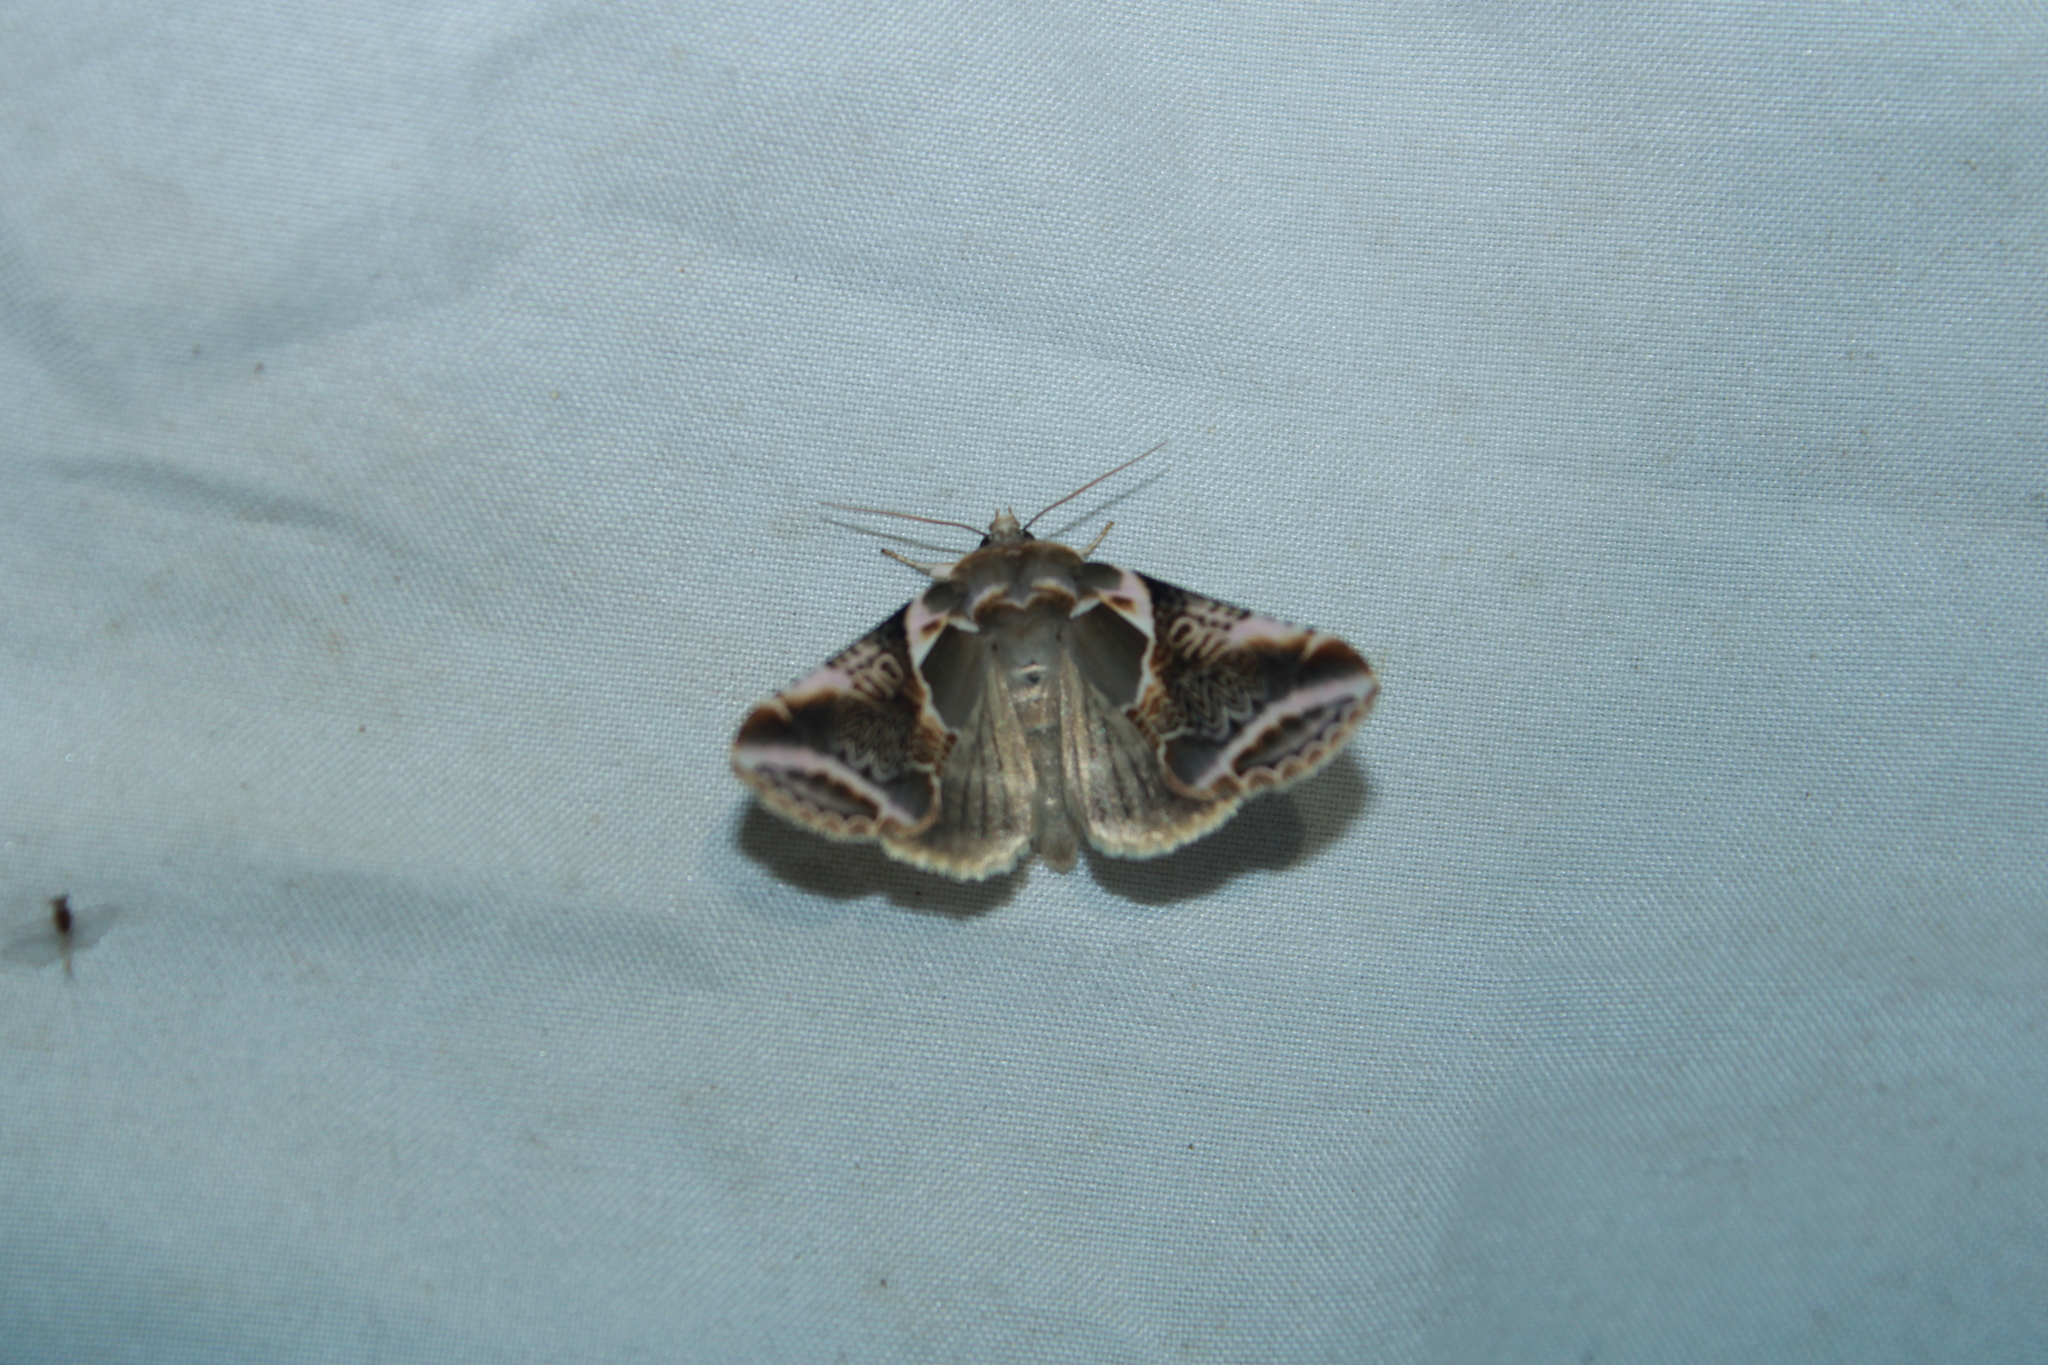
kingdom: Animalia
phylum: Arthropoda
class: Insecta
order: Lepidoptera
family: Drepanidae
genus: Habrosyne
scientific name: Habrosyne scripta
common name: Lettered habrosyne moth
